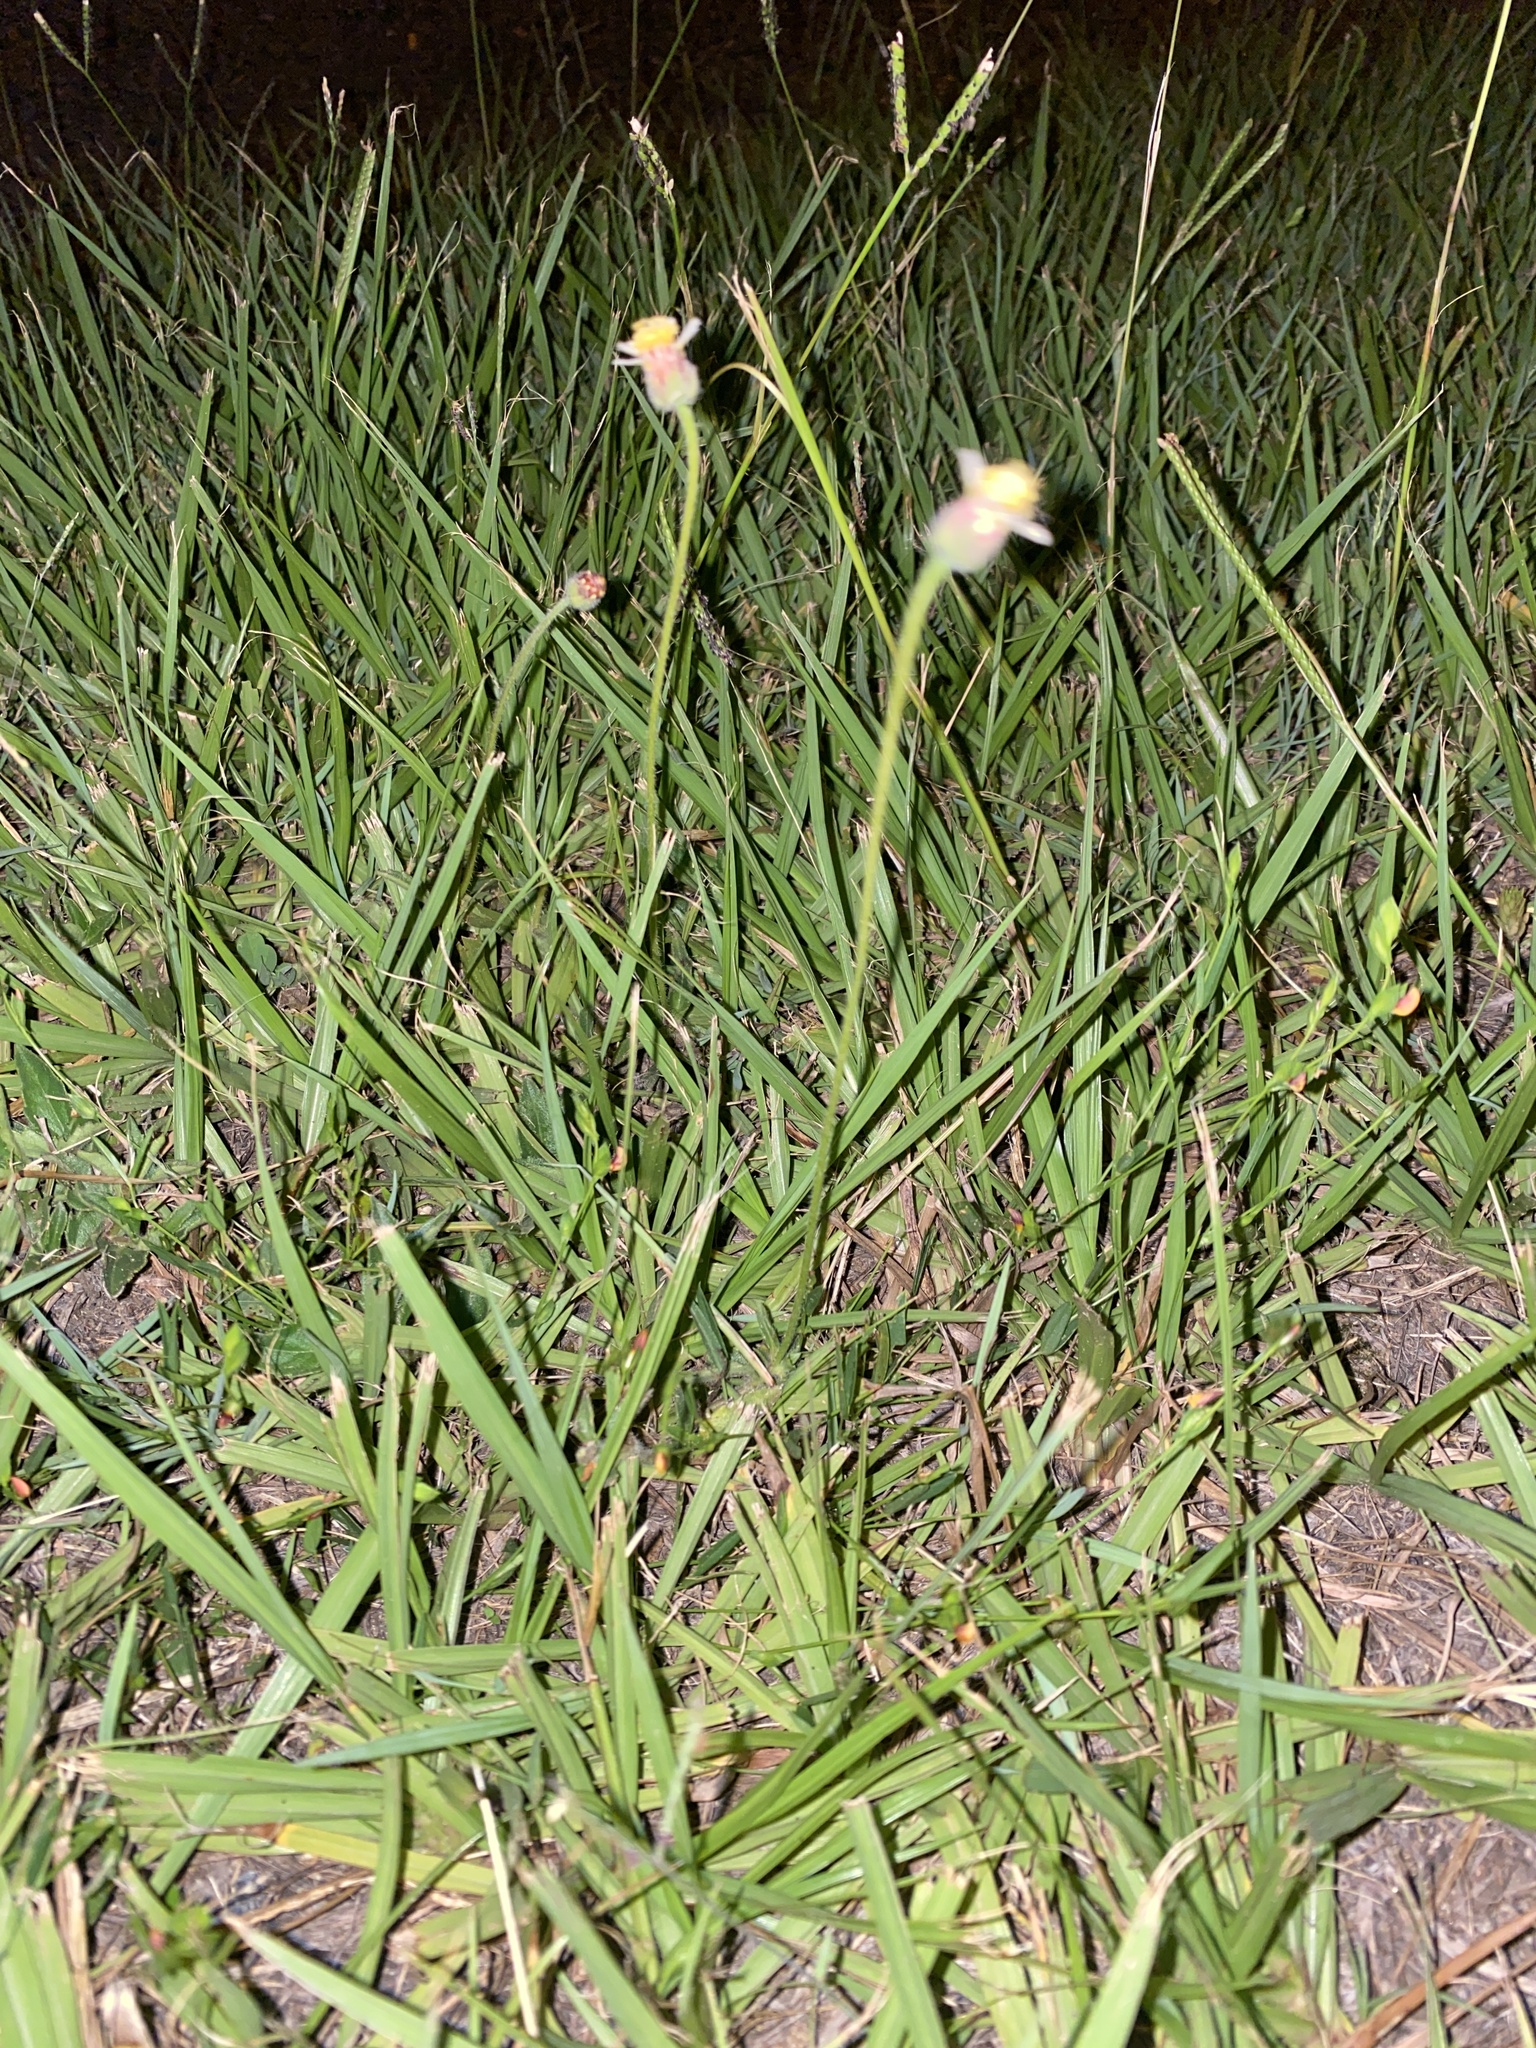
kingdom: Plantae
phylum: Tracheophyta
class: Magnoliopsida
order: Asterales
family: Asteraceae
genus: Tridax
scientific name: Tridax procumbens
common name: Coatbuttons
